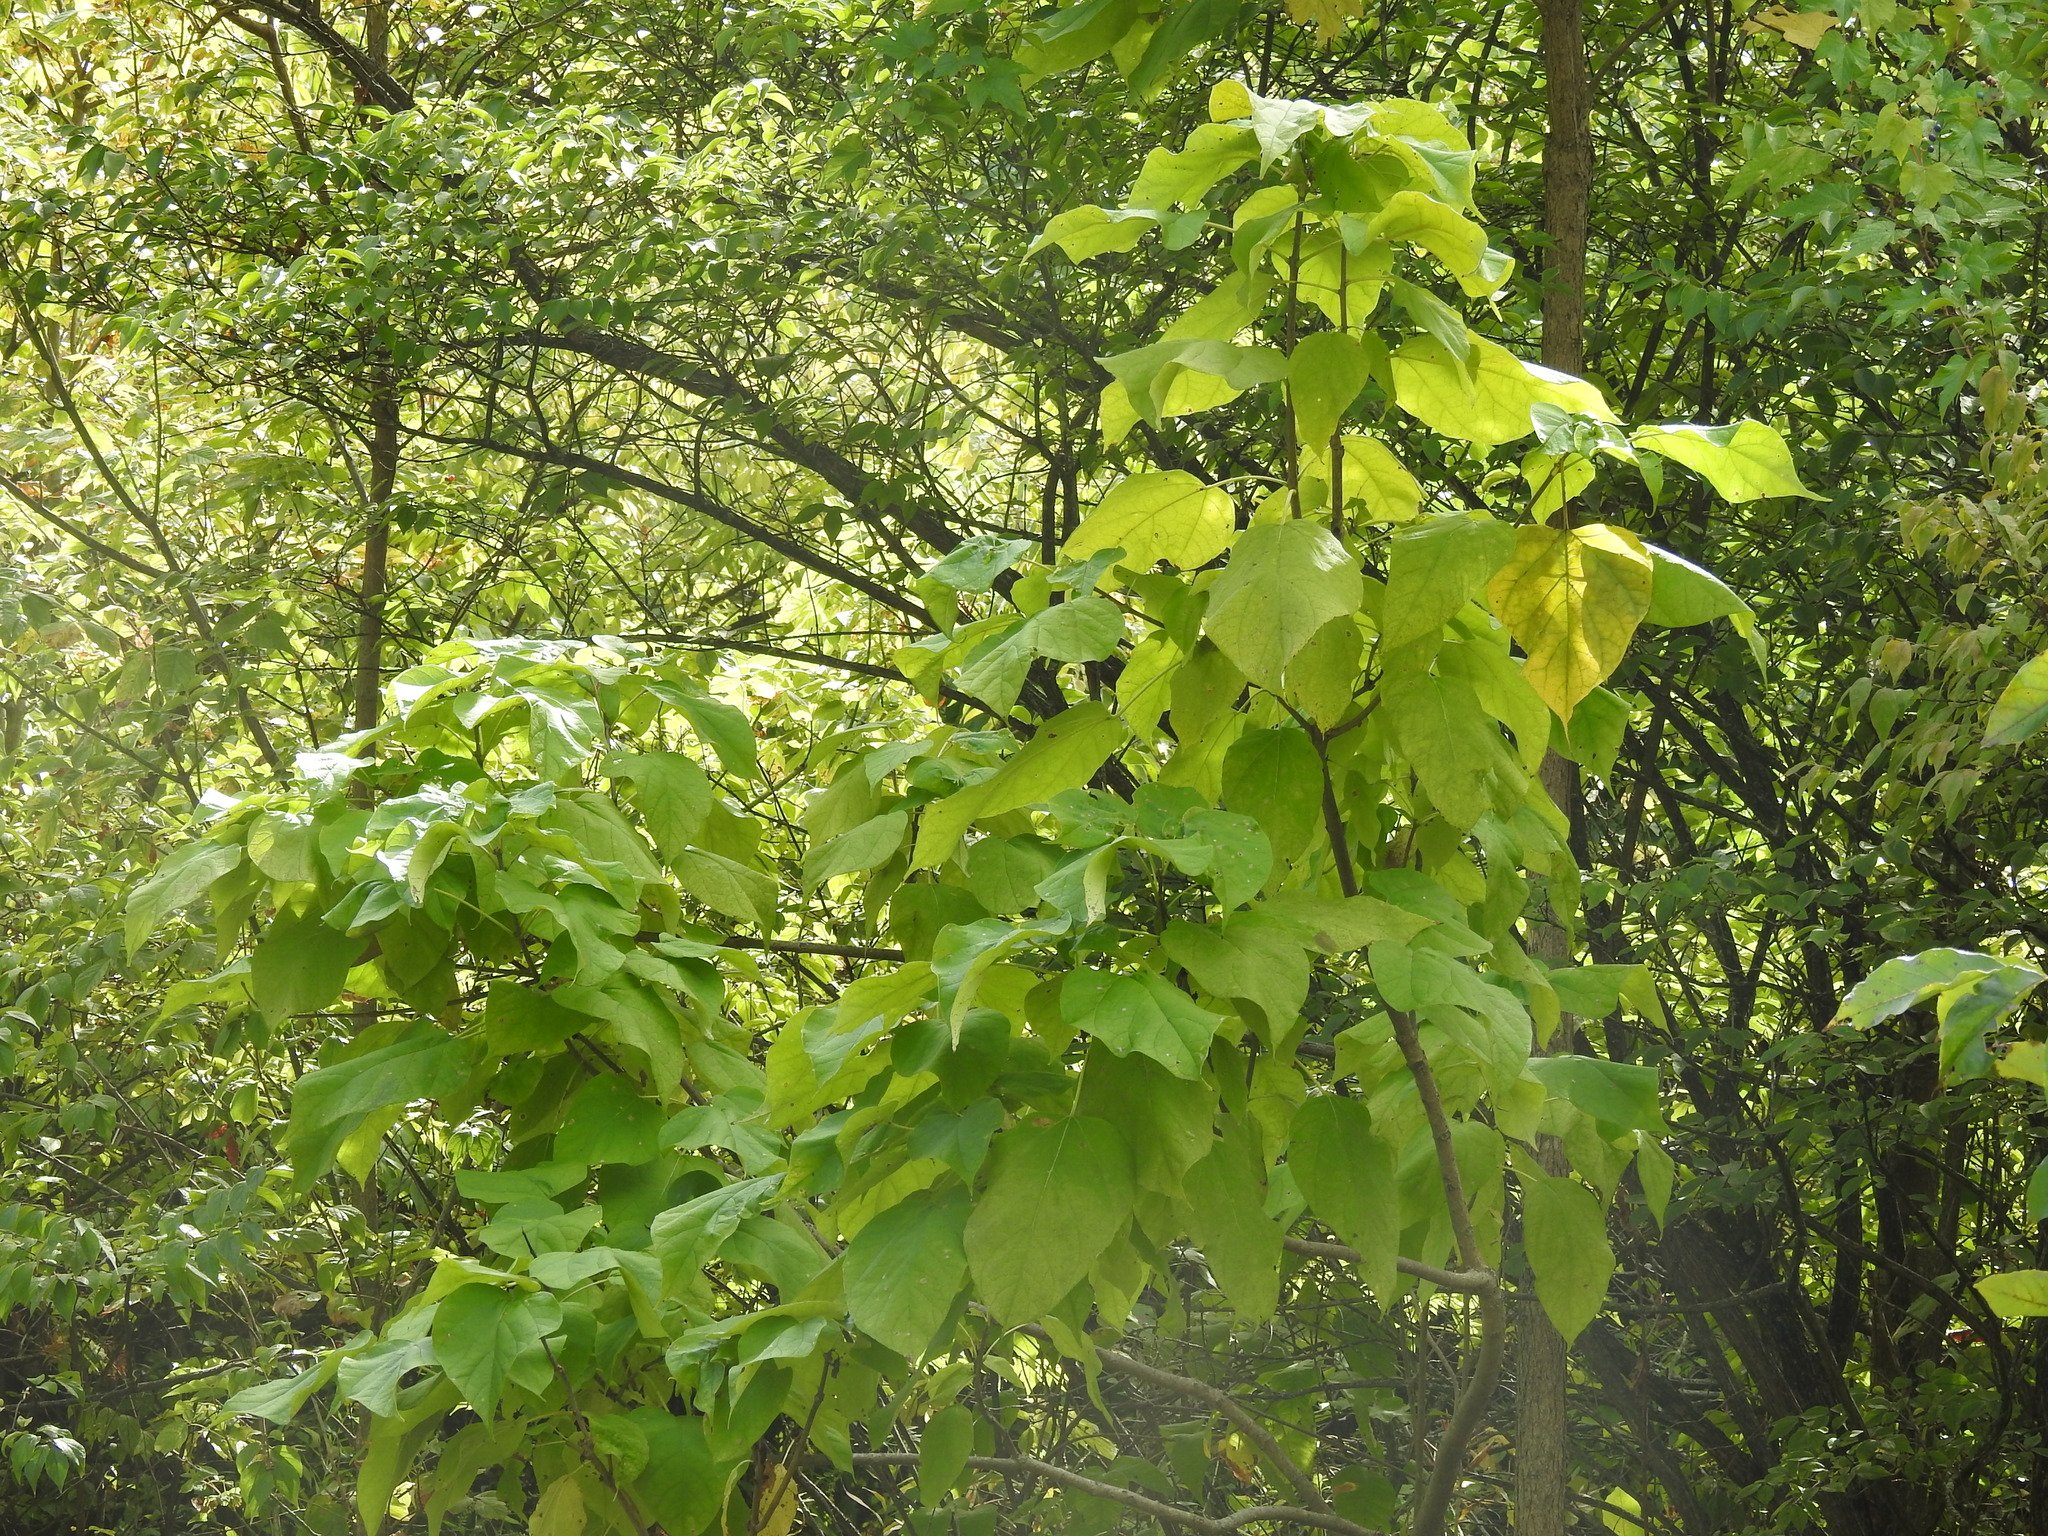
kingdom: Plantae
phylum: Tracheophyta
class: Magnoliopsida
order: Lamiales
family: Bignoniaceae
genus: Catalpa
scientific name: Catalpa speciosa
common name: Northern catalpa
